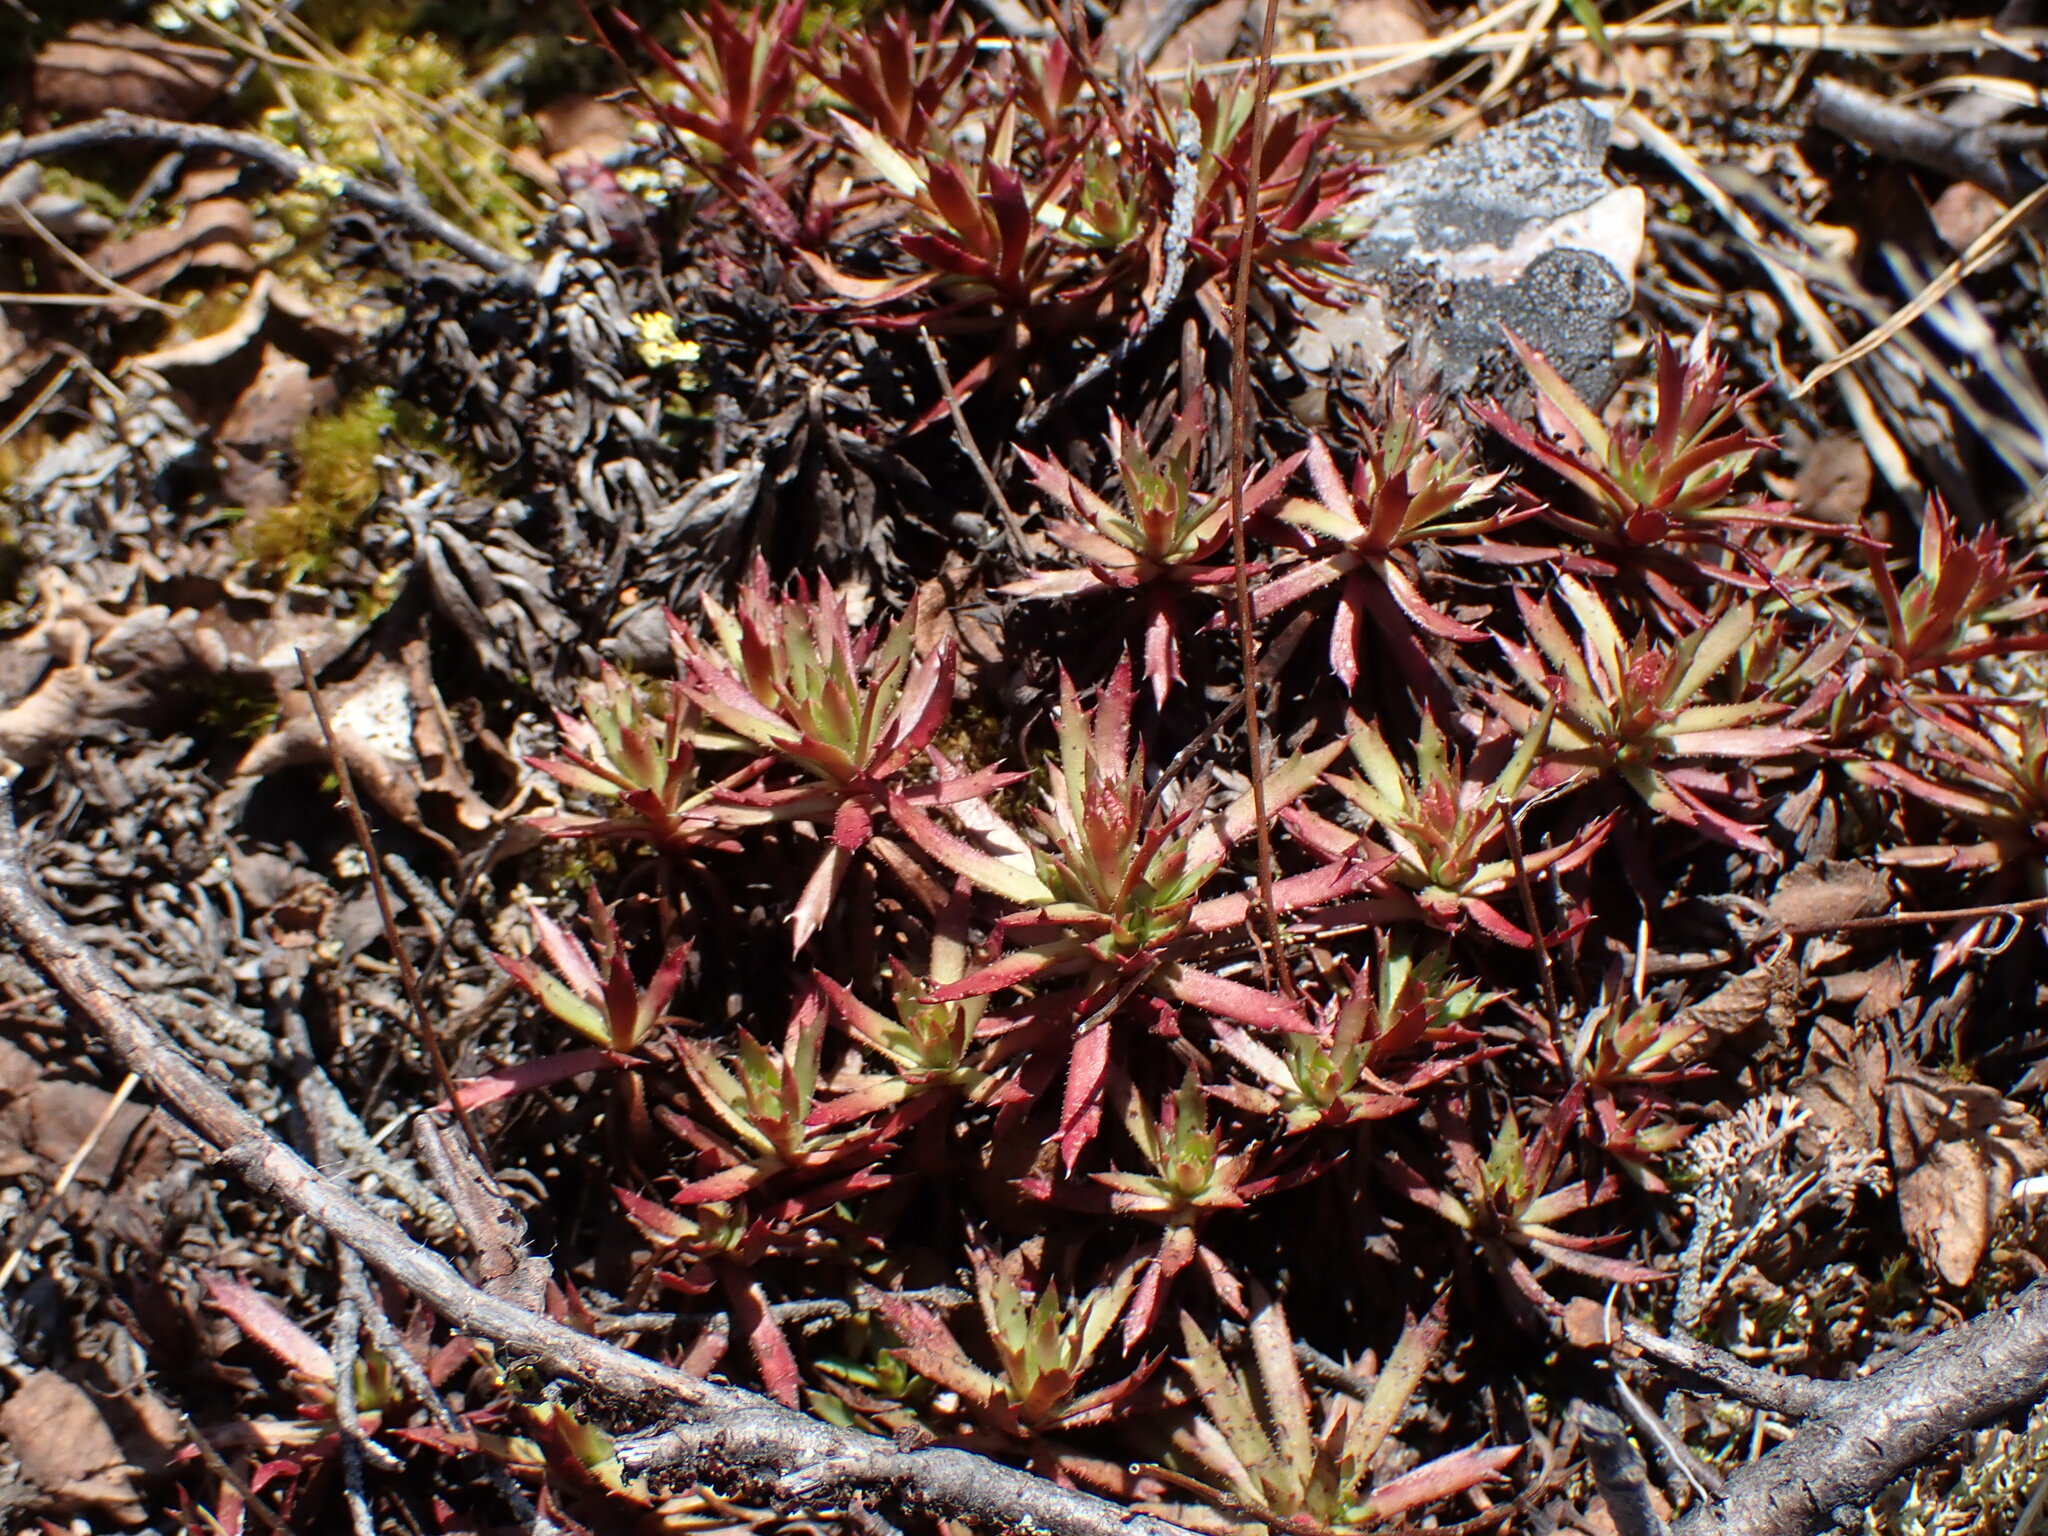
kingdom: Plantae
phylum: Tracheophyta
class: Magnoliopsida
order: Saxifragales
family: Saxifragaceae
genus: Saxifraga
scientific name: Saxifraga tricuspidata
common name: Prickly saxifrage
